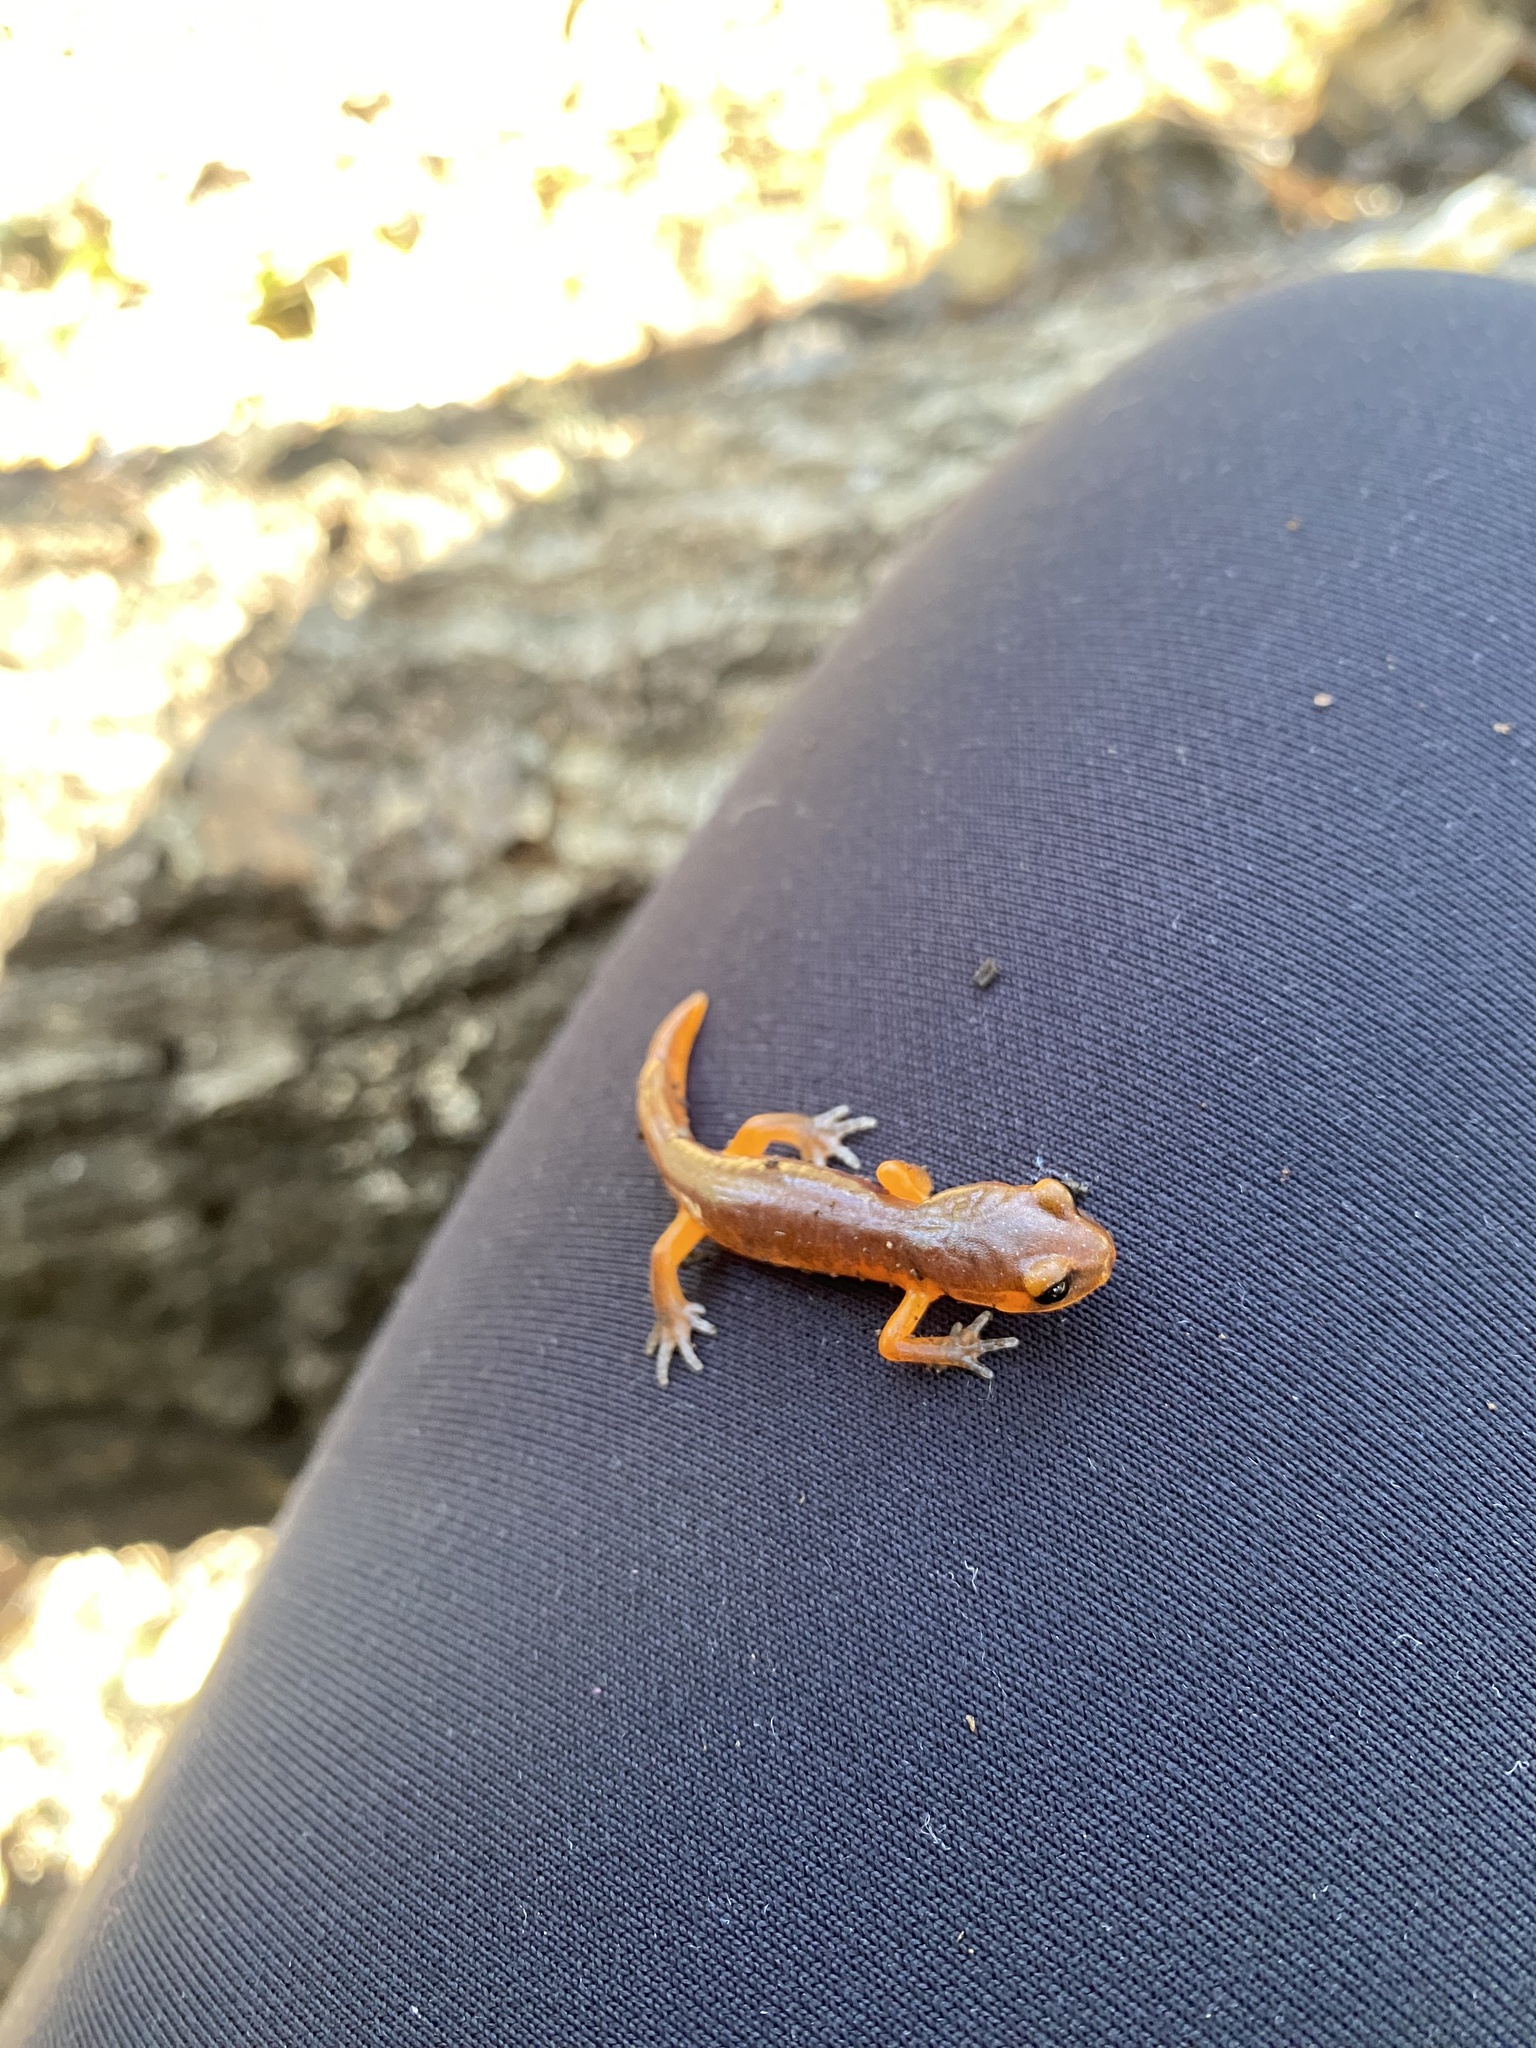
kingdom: Animalia
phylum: Chordata
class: Amphibia
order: Caudata
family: Plethodontidae
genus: Ensatina
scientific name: Ensatina eschscholtzii
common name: Ensatina
